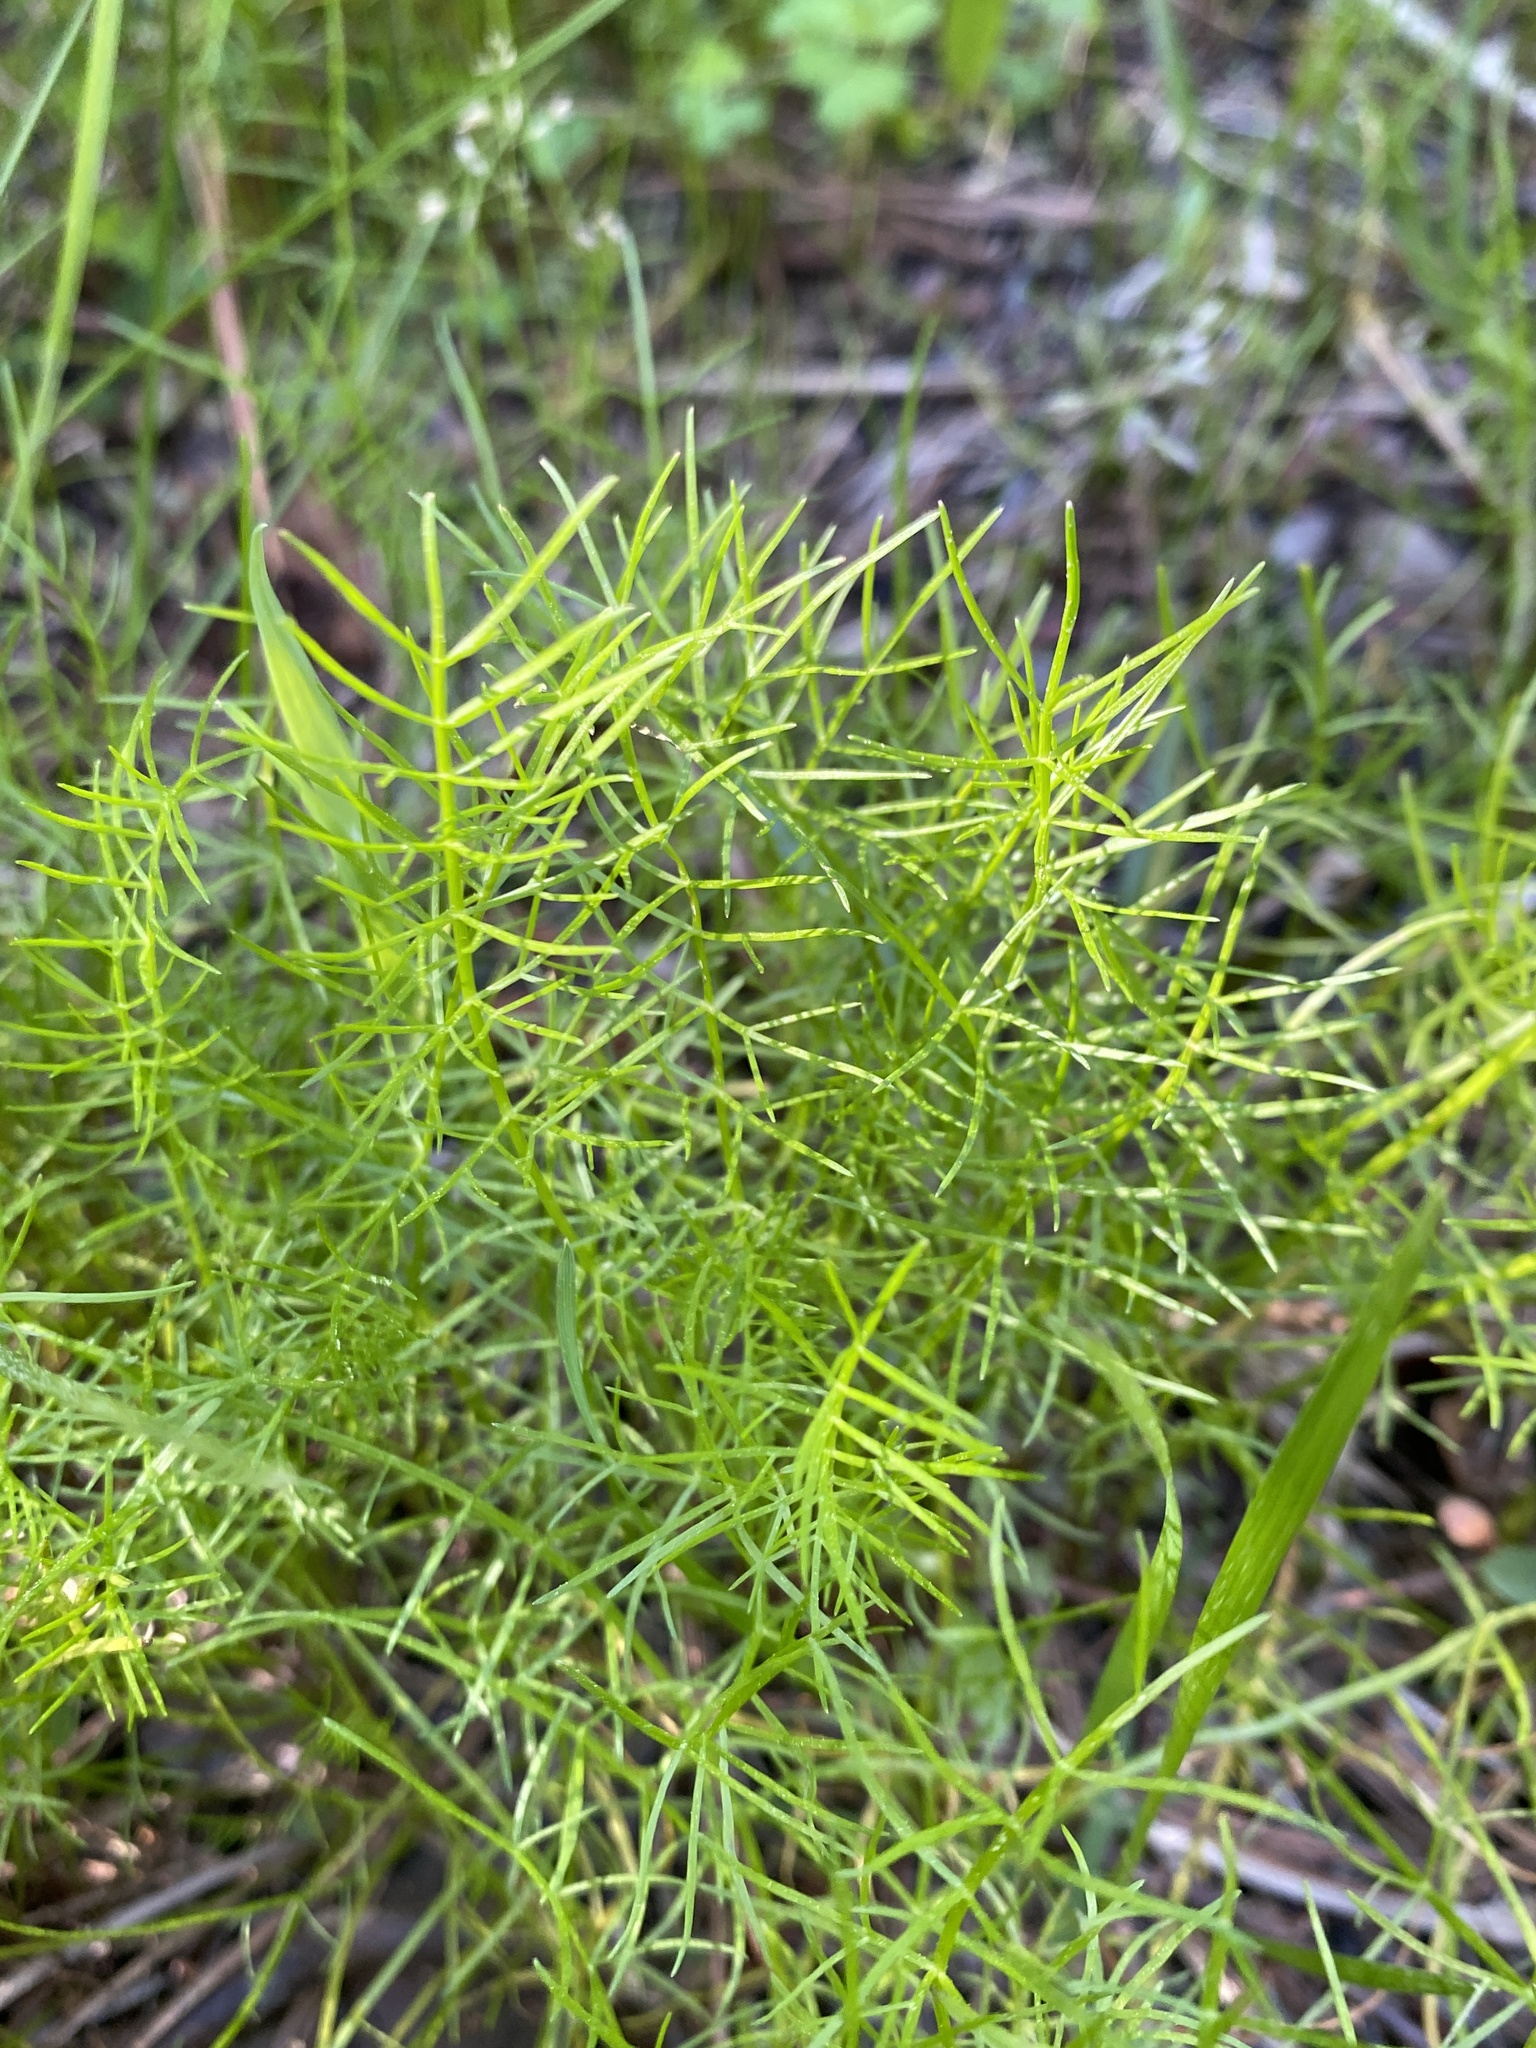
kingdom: Plantae
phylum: Tracheophyta
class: Magnoliopsida
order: Apiales
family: Apiaceae
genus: Ptilimnium
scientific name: Ptilimnium capillaceum
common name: Herbwilliam
